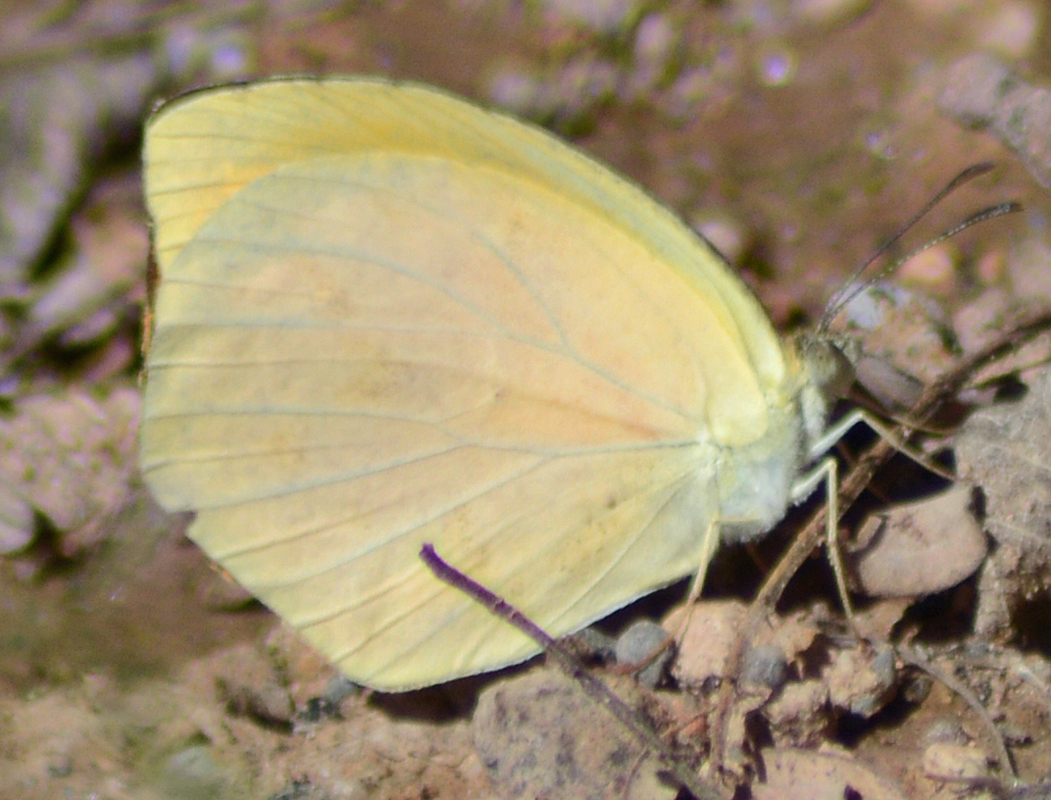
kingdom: Animalia
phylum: Arthropoda
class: Insecta
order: Lepidoptera
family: Pieridae
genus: Pyrisitia
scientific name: Pyrisitia proterpia
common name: Tailed orange
